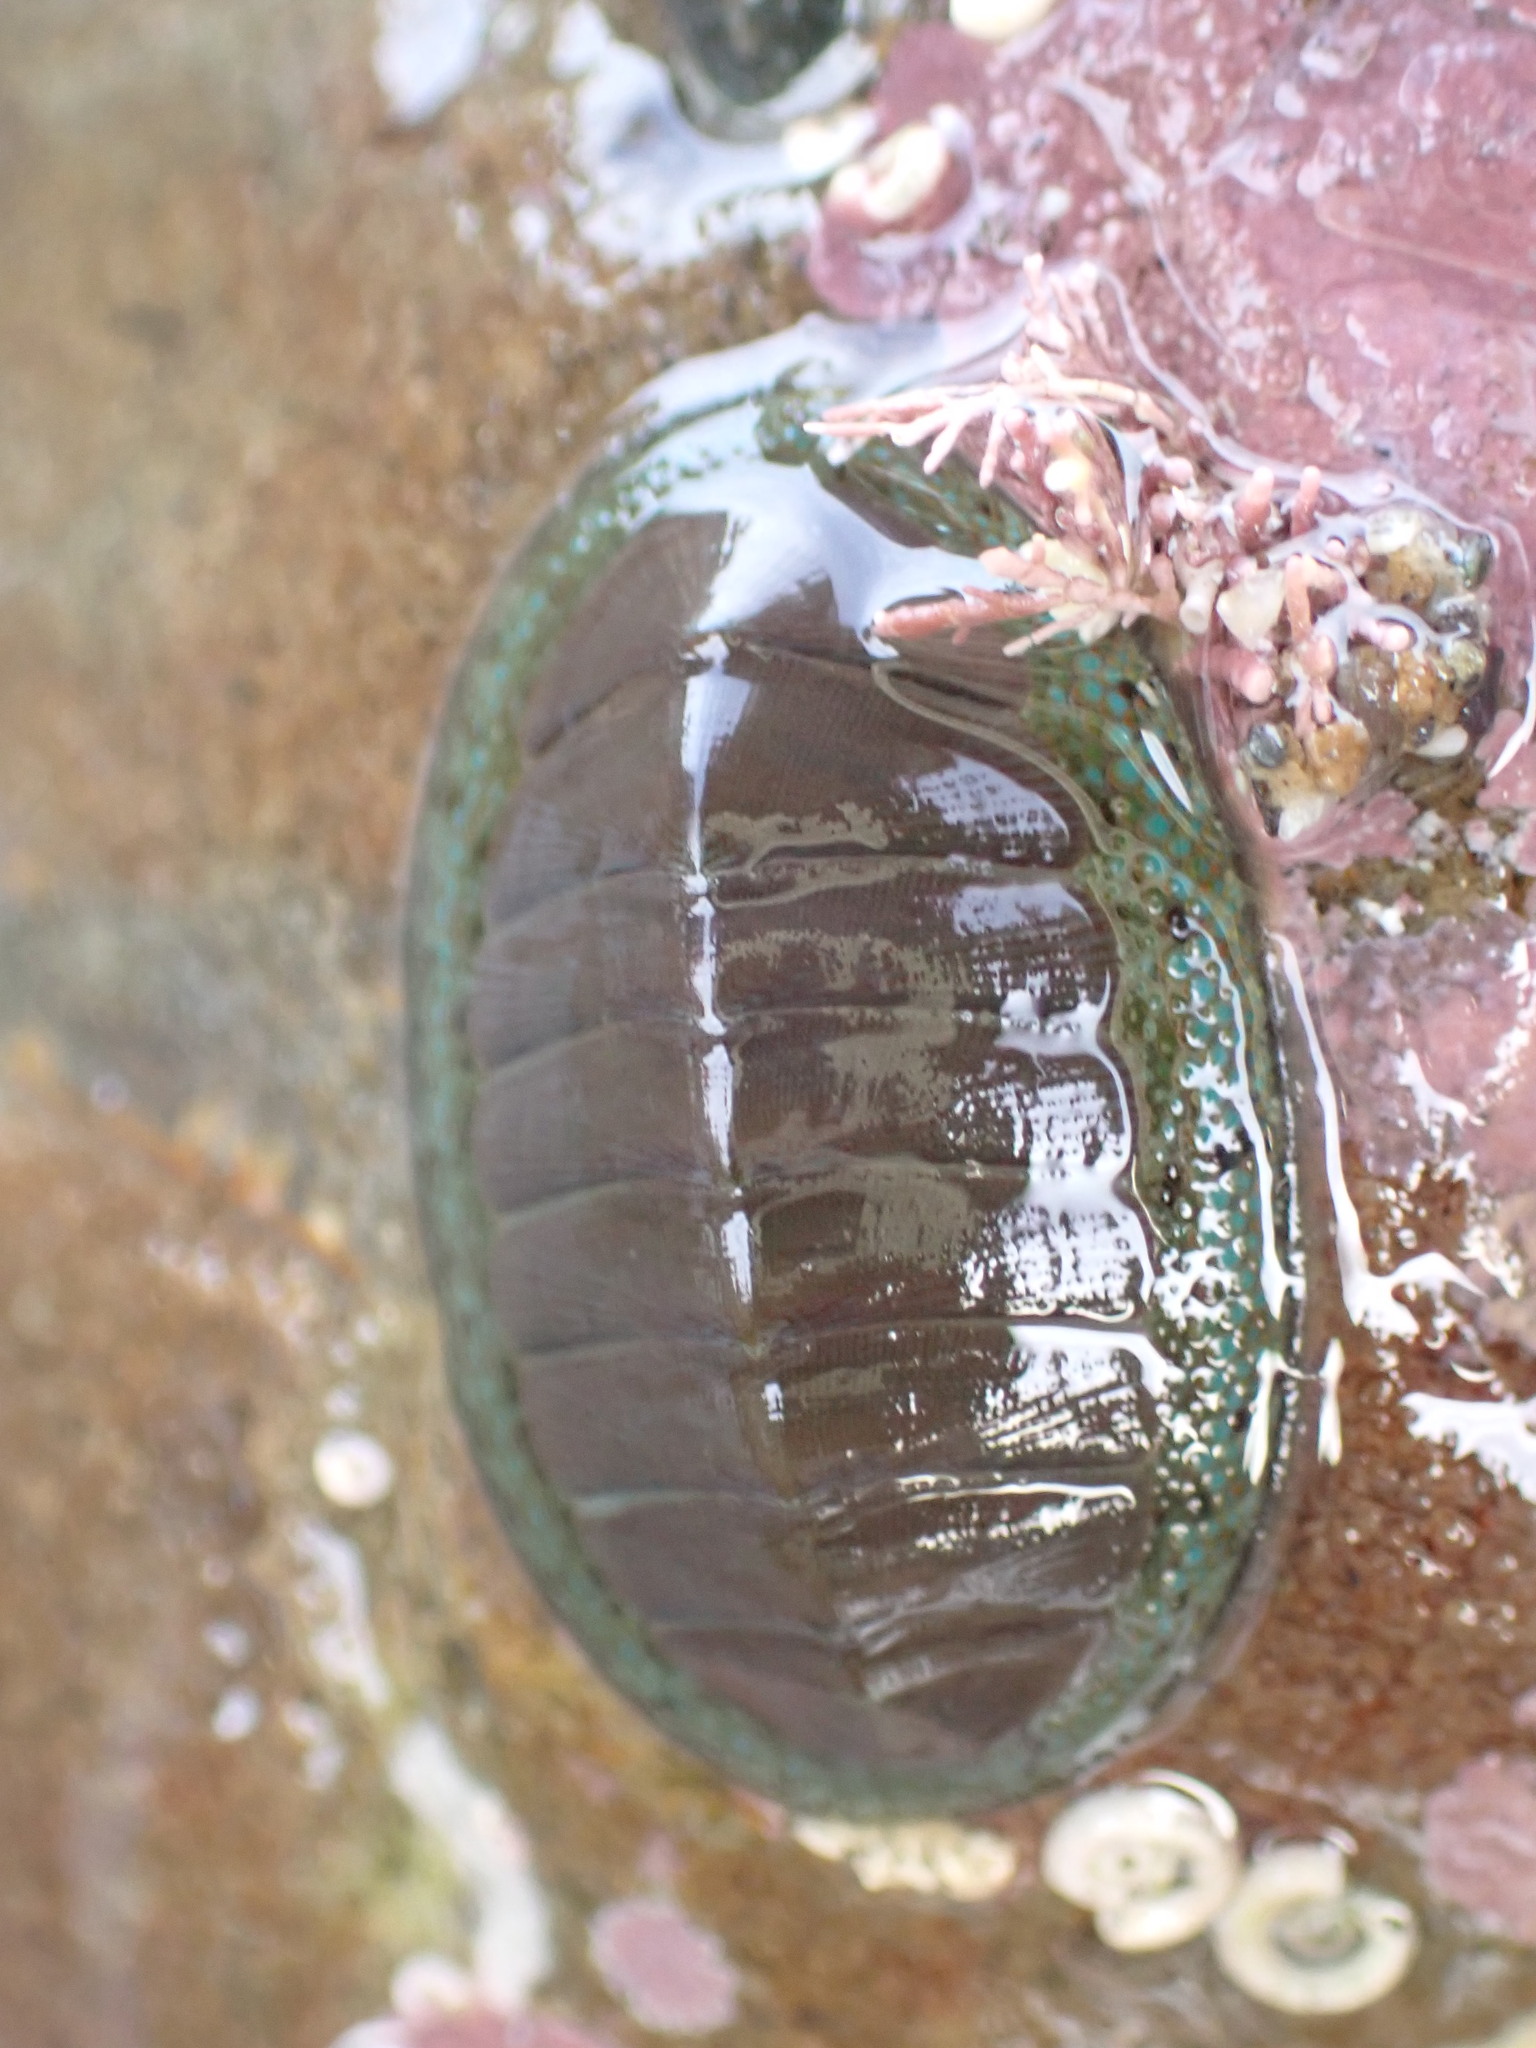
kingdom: Animalia
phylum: Mollusca
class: Polyplacophora
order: Chitonida
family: Chitonidae
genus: Chiton
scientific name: Chiton glaucus
